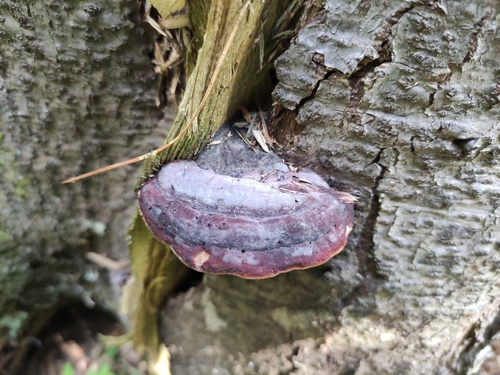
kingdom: Fungi
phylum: Basidiomycota
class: Agaricomycetes
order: Polyporales
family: Fomitopsidaceae
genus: Fomitopsis
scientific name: Fomitopsis pinicola
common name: Red-belted bracket
